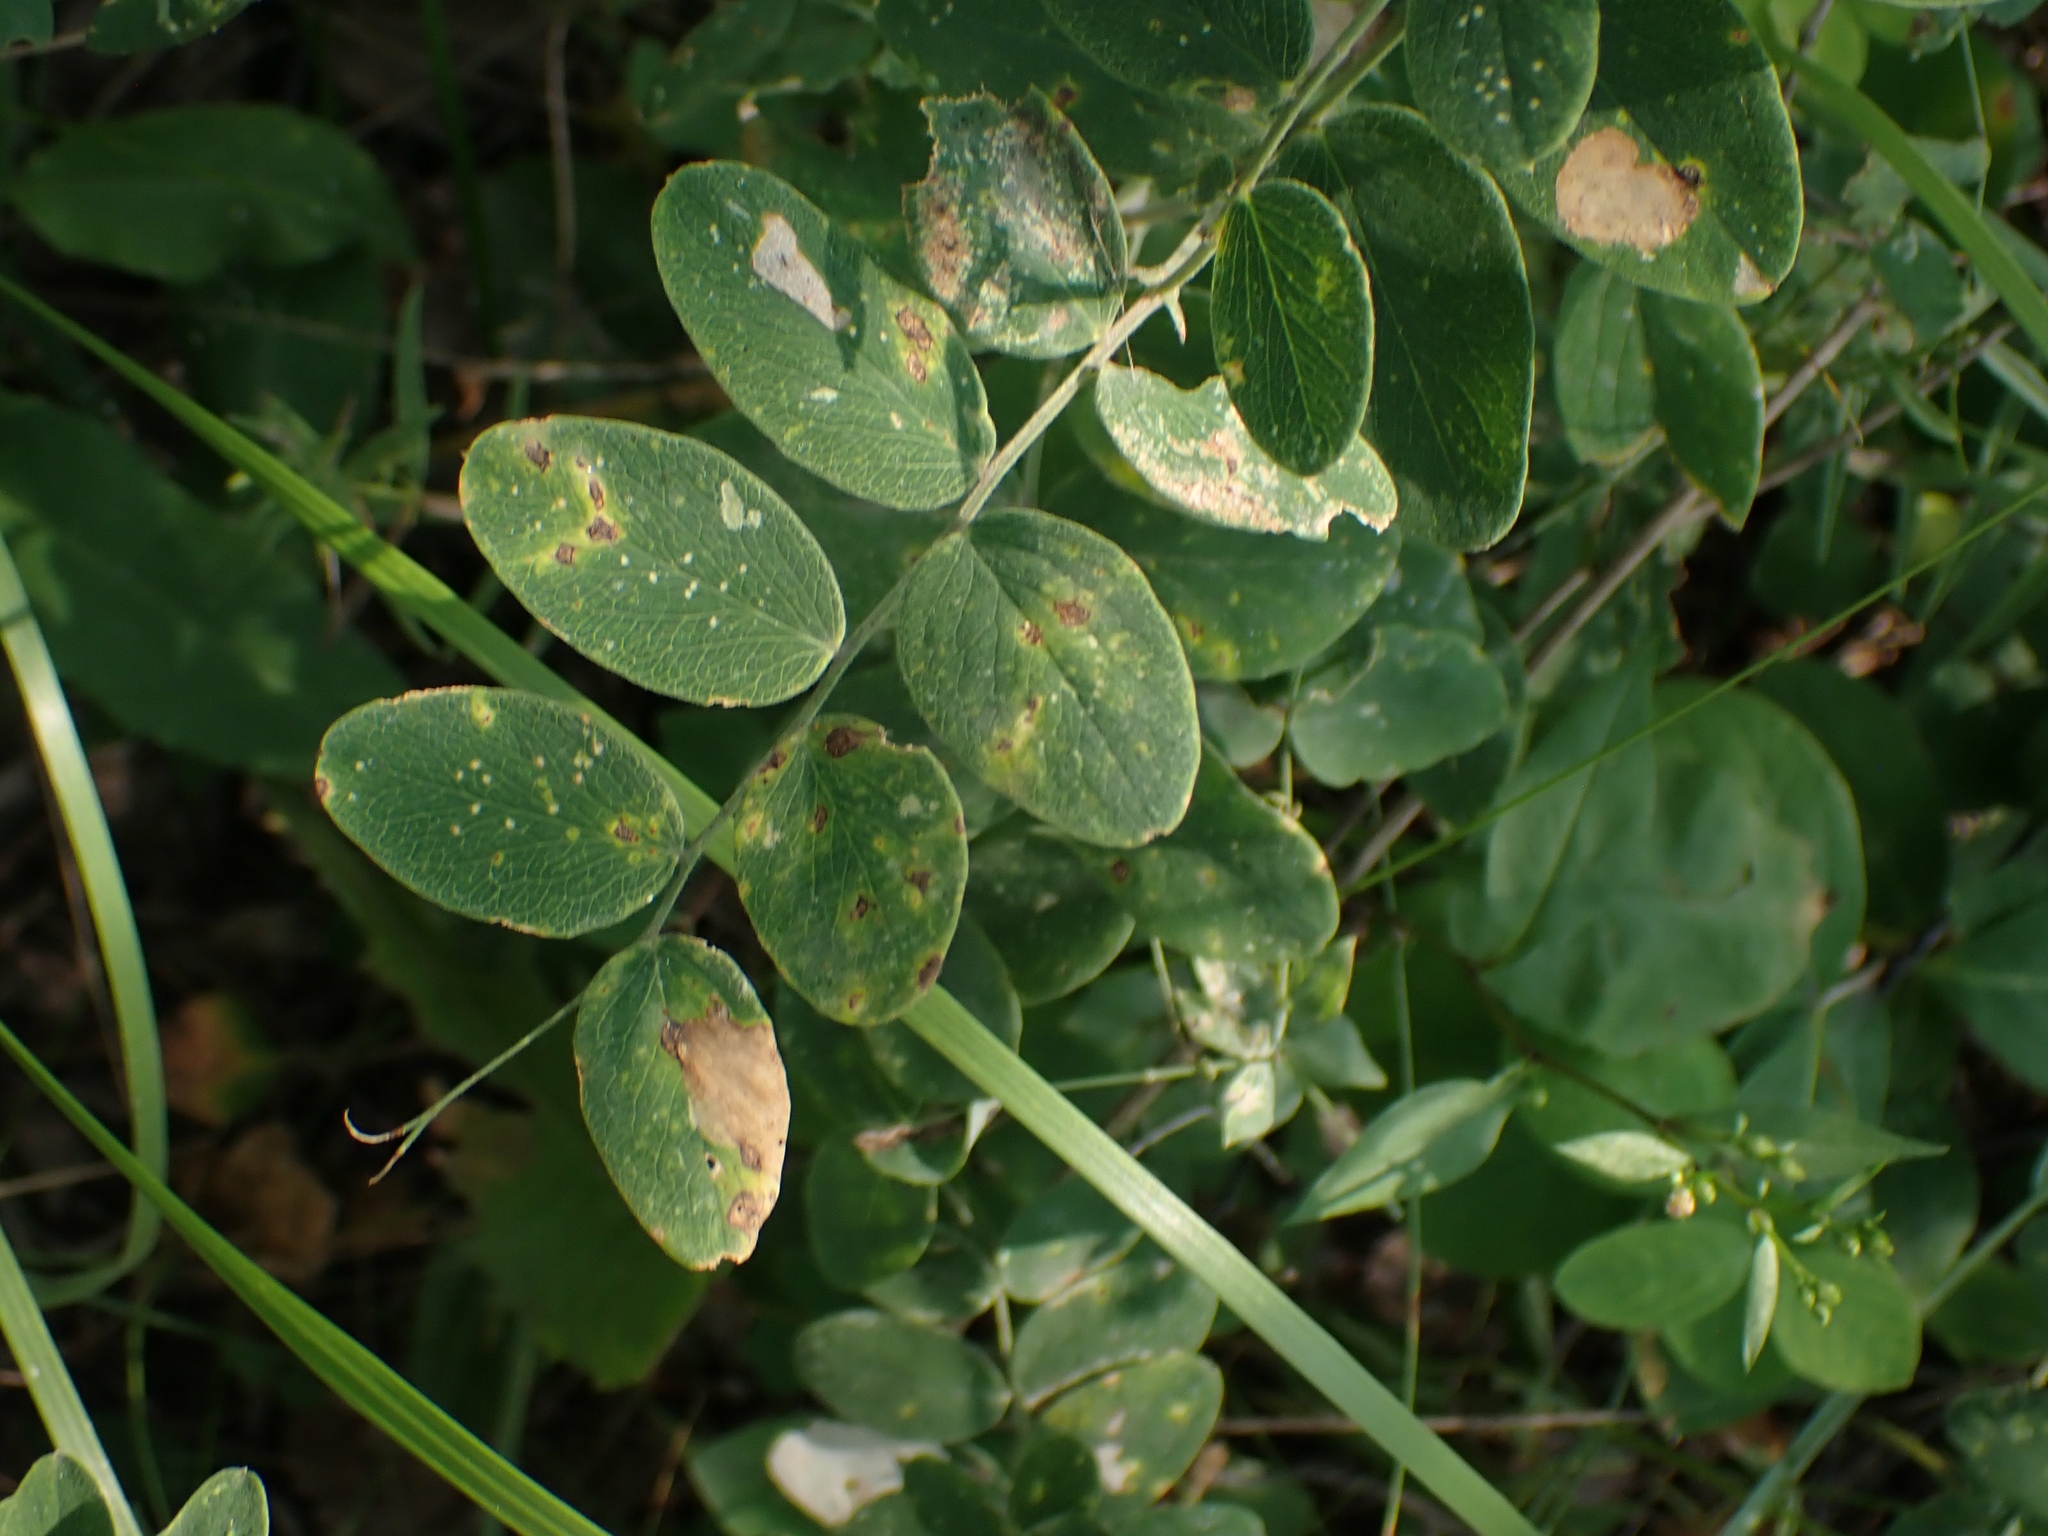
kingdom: Plantae
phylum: Tracheophyta
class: Magnoliopsida
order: Fabales
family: Fabaceae
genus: Lathyrus
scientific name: Lathyrus ochroleucus
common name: Pale vetchling
